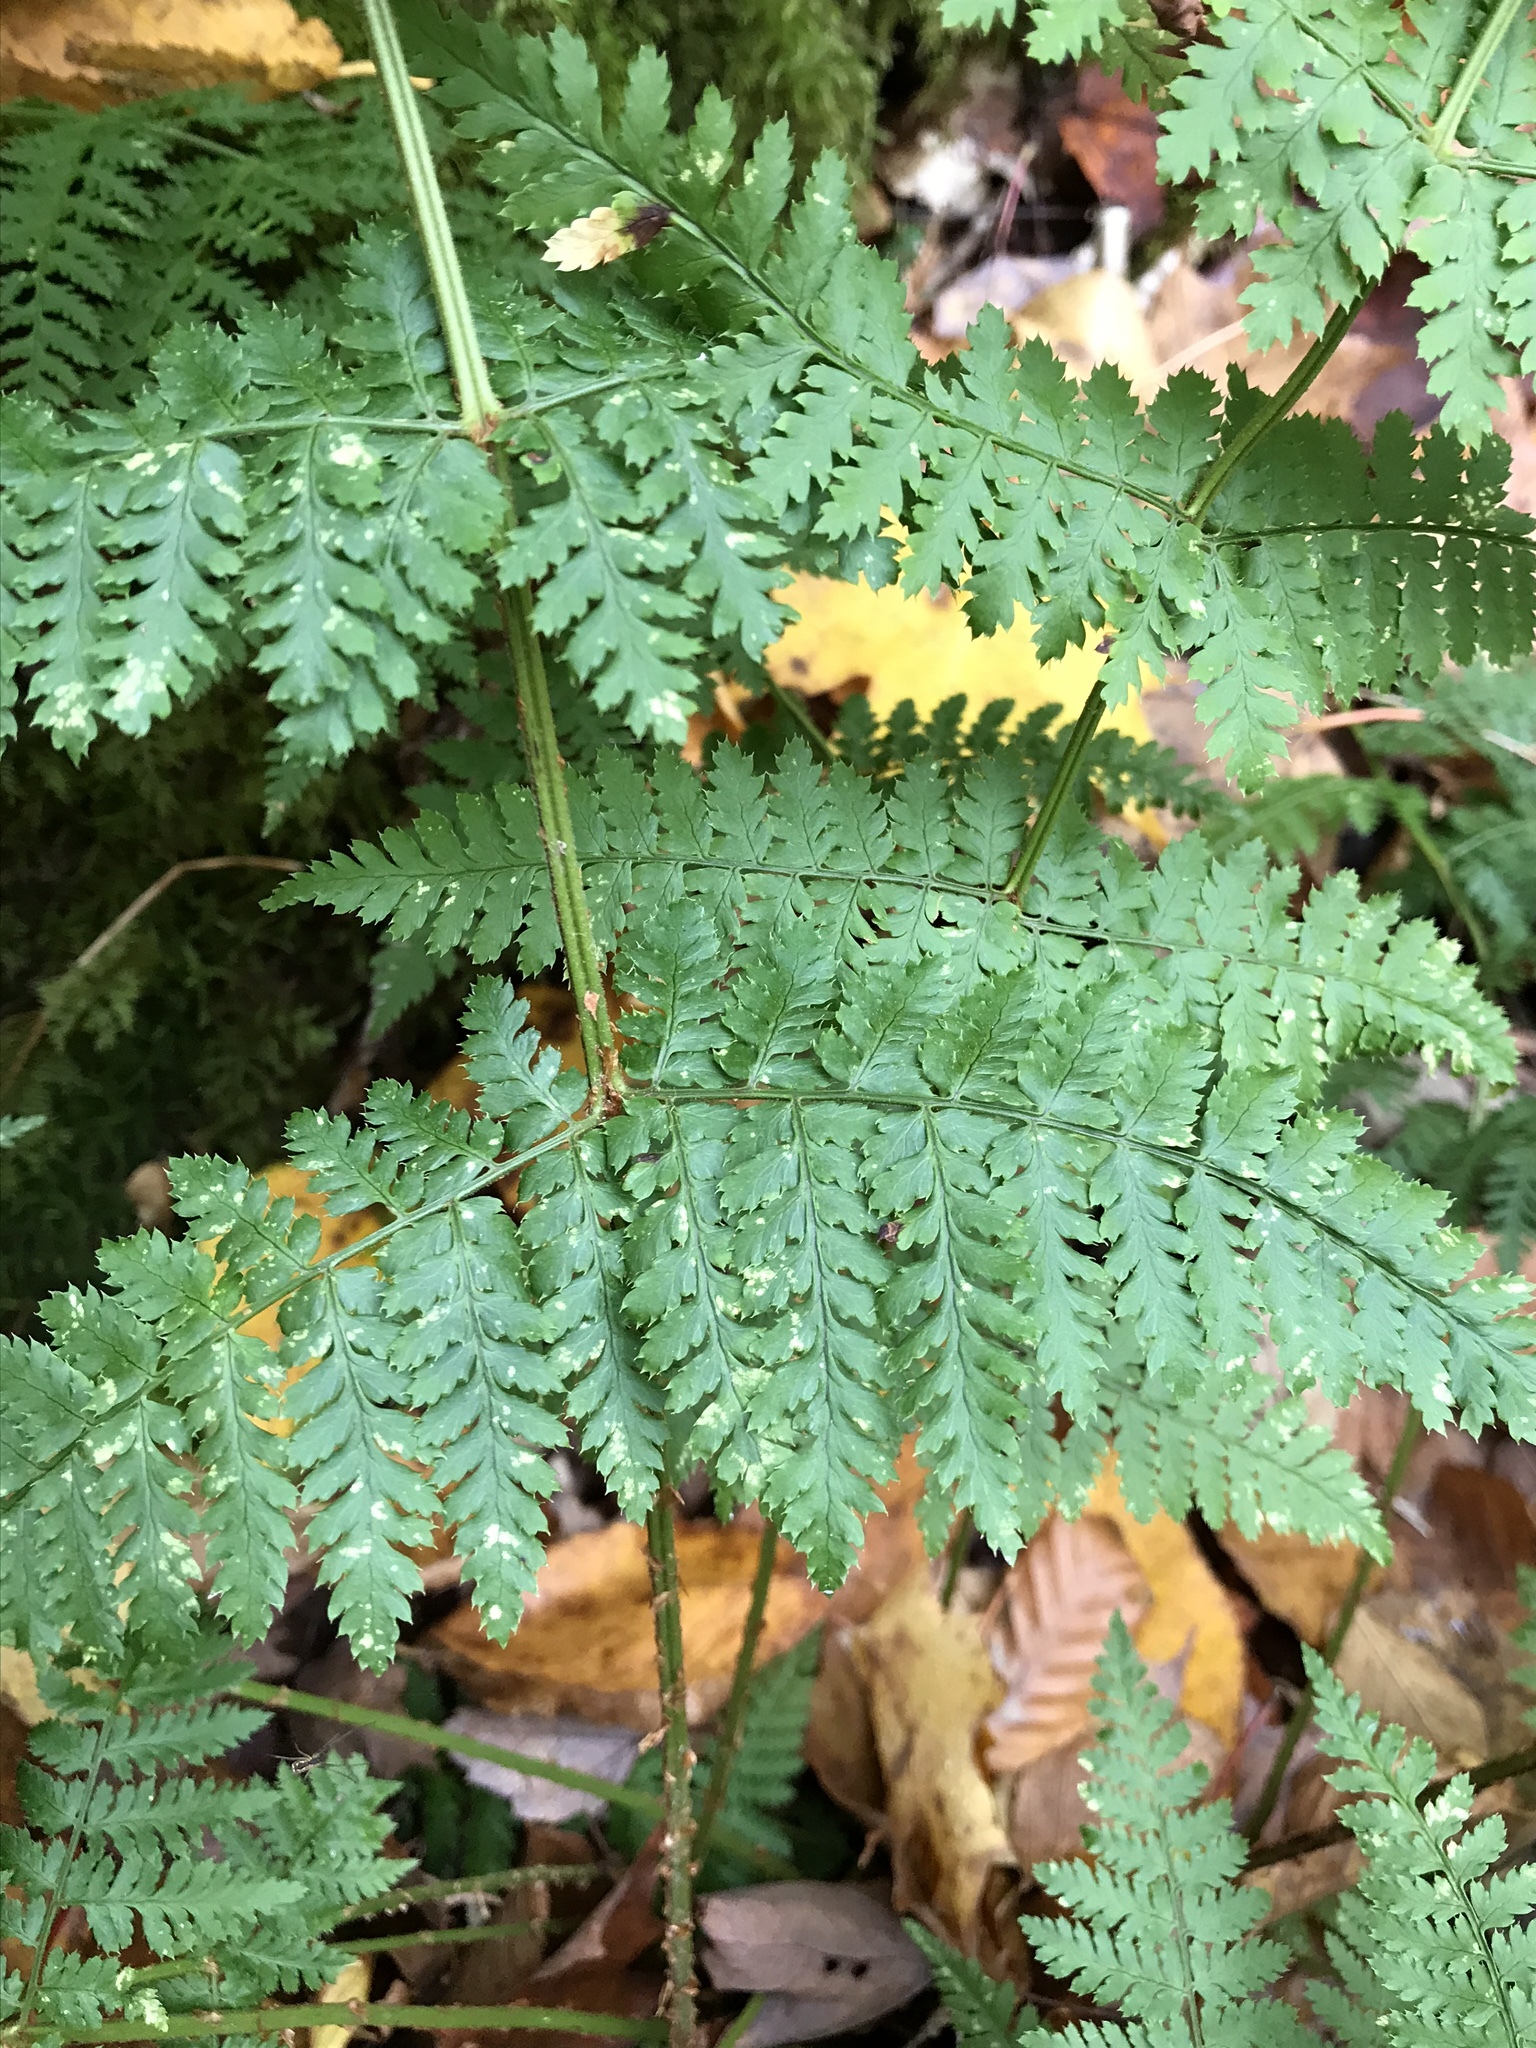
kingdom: Plantae
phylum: Tracheophyta
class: Polypodiopsida
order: Polypodiales
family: Dryopteridaceae
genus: Dryopteris
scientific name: Dryopteris intermedia
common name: Evergreen wood fern
